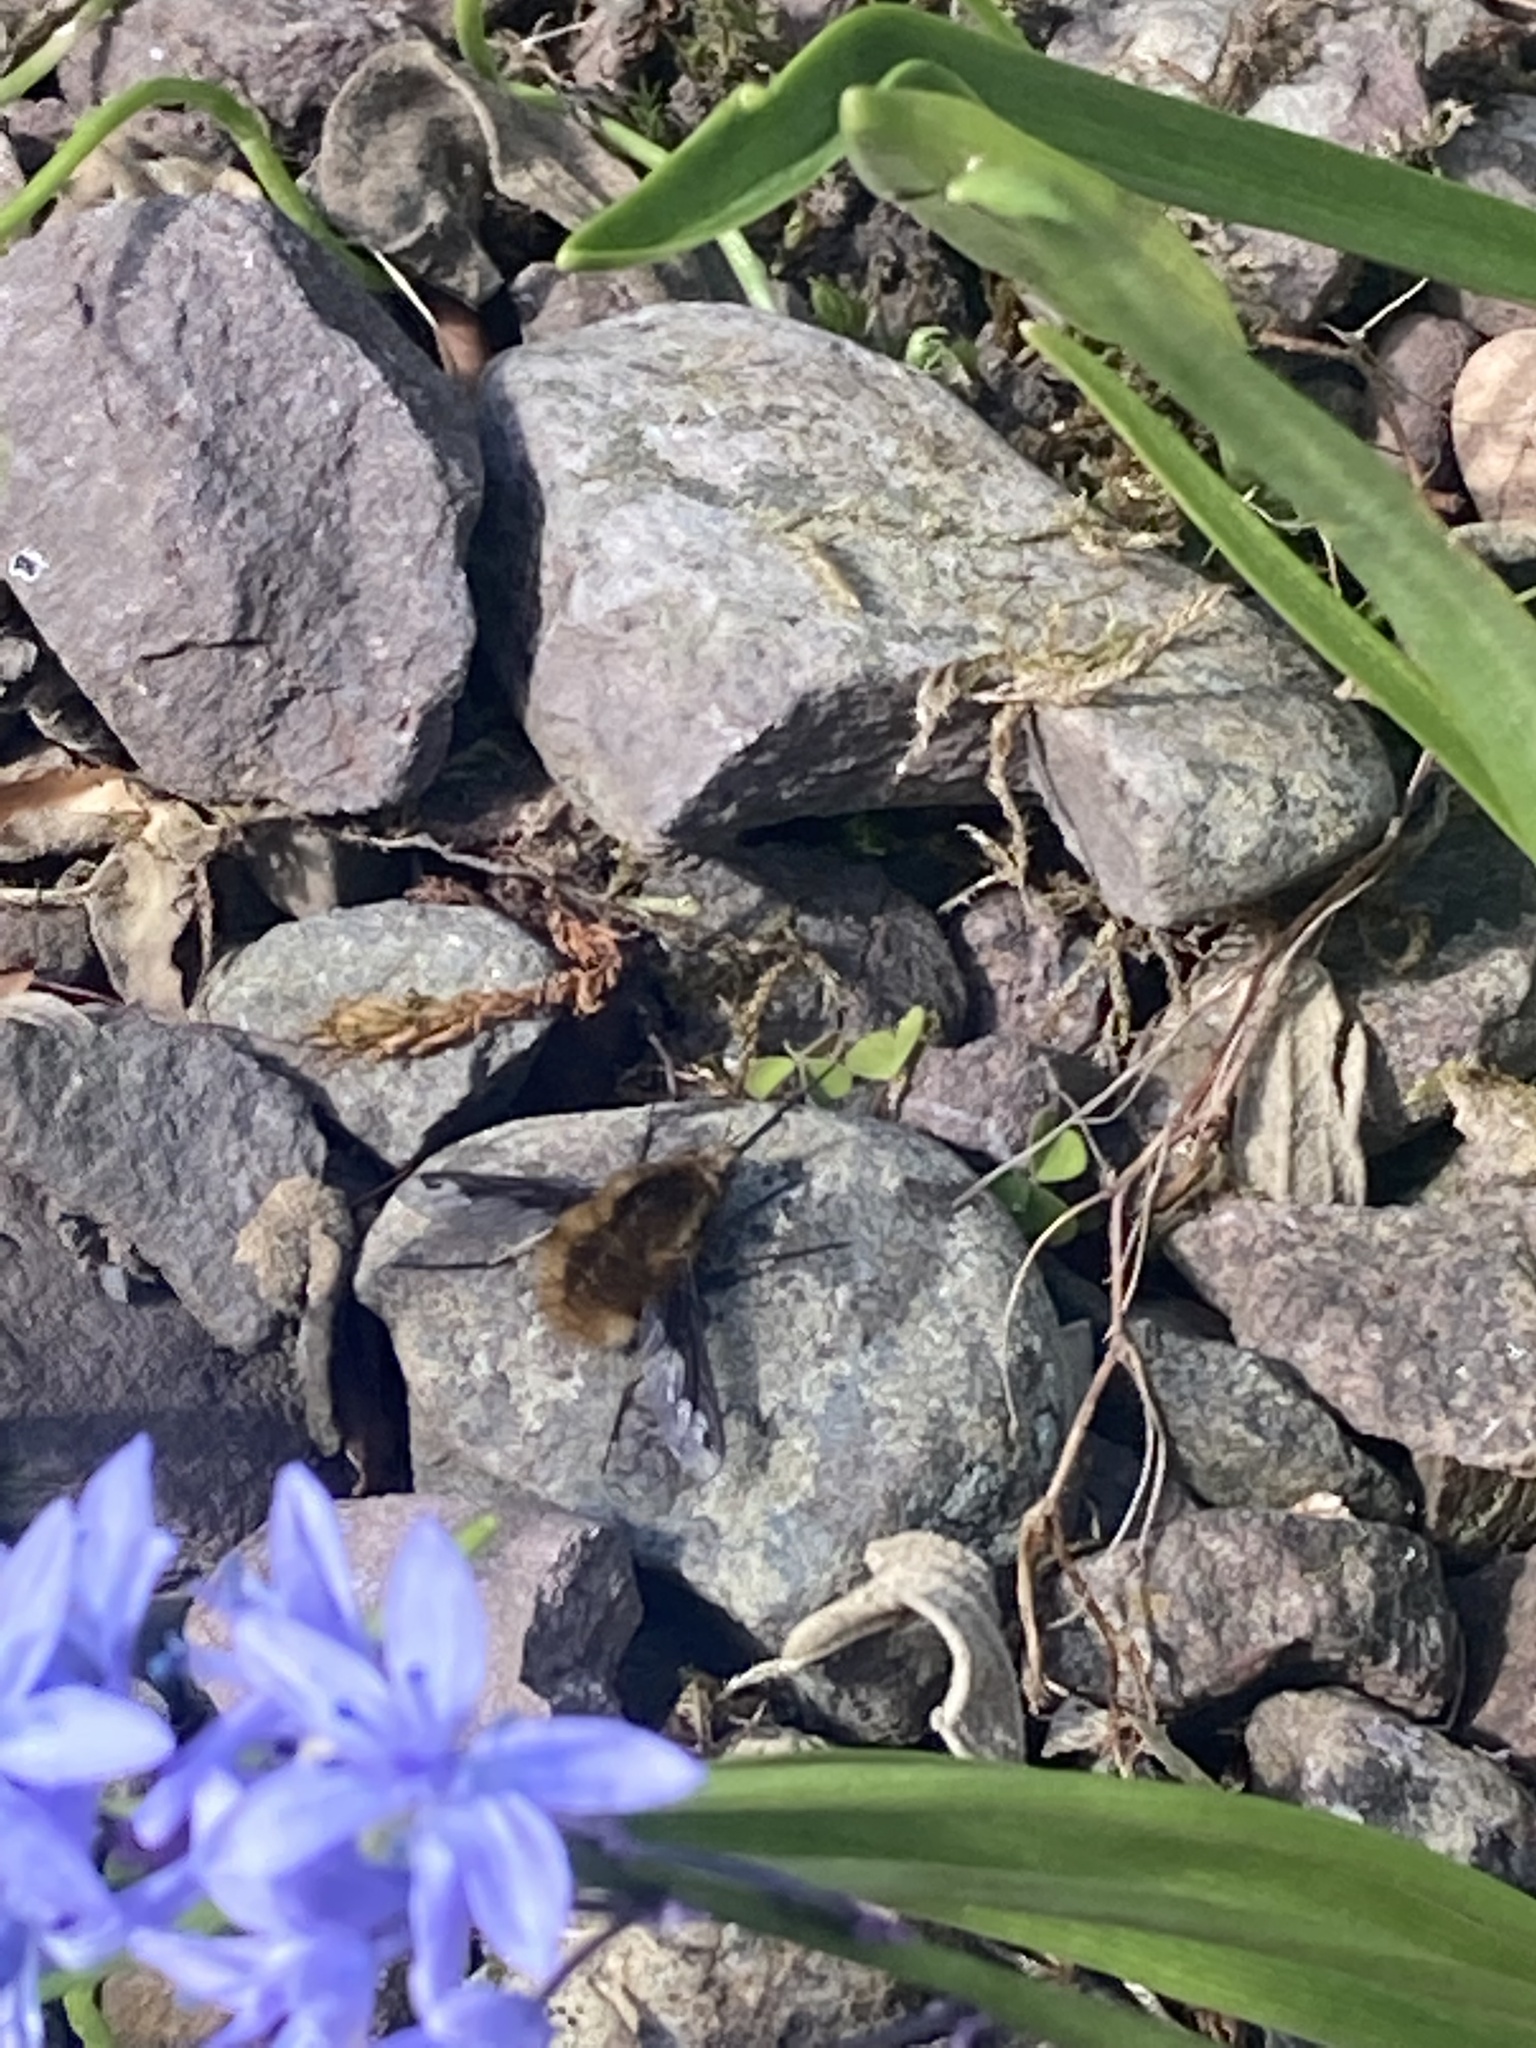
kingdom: Animalia
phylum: Arthropoda
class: Insecta
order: Diptera
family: Bombyliidae
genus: Bombylius
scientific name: Bombylius major
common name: Bee fly
